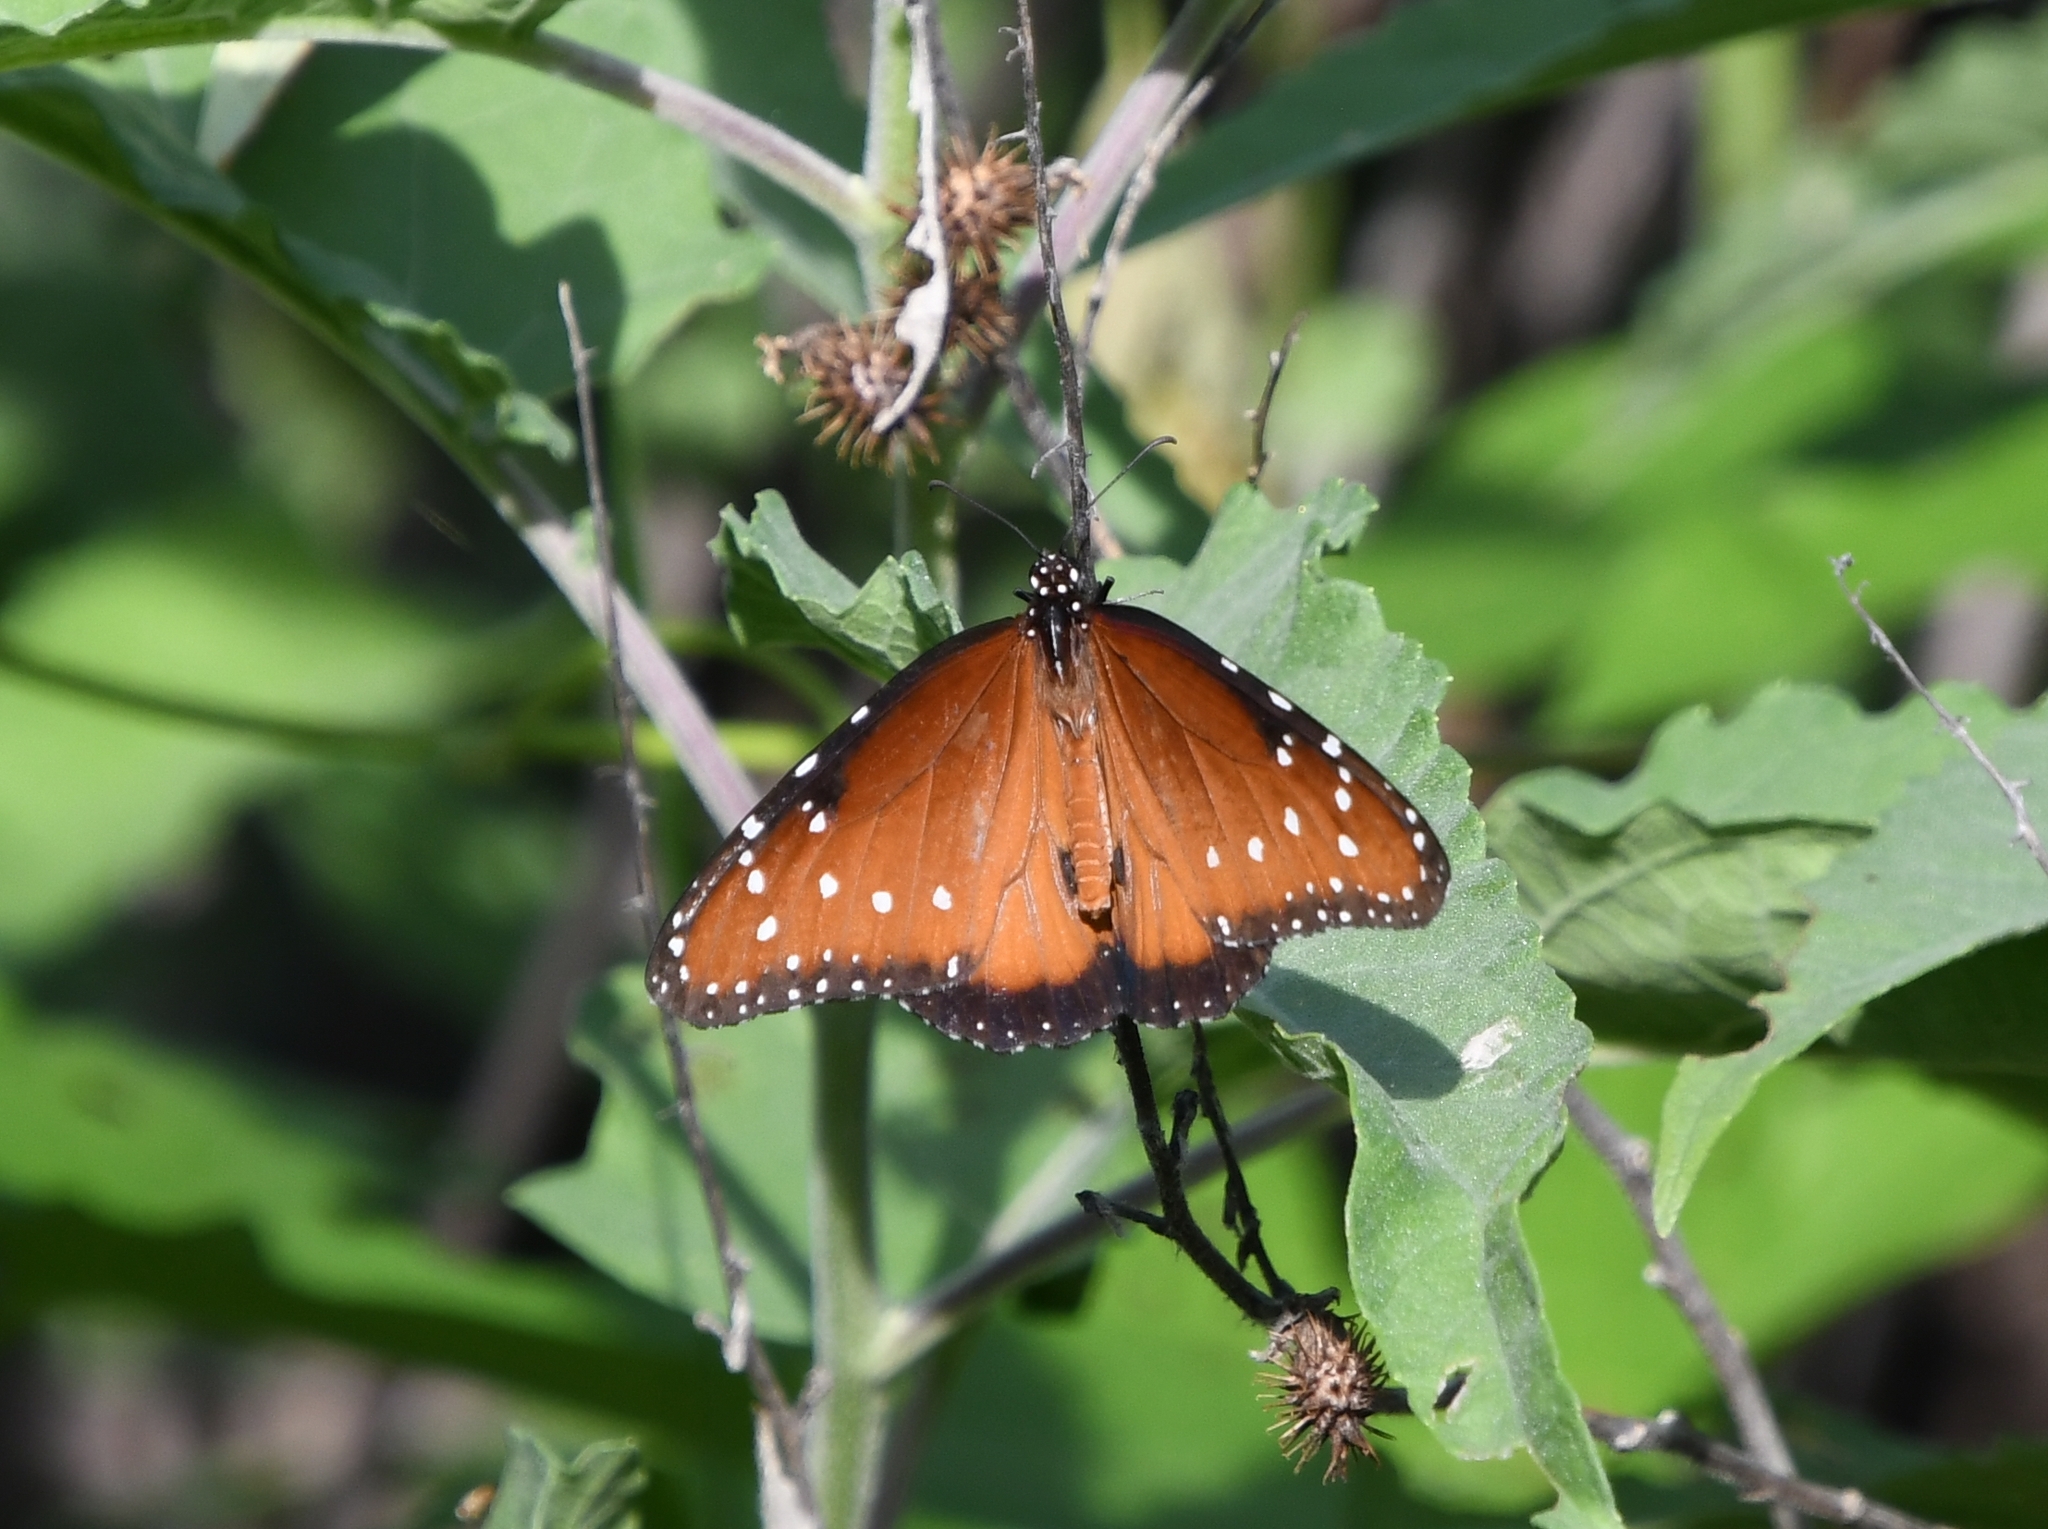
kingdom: Animalia
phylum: Arthropoda
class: Insecta
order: Lepidoptera
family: Nymphalidae
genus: Danaus
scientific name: Danaus gilippus
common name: Queen
